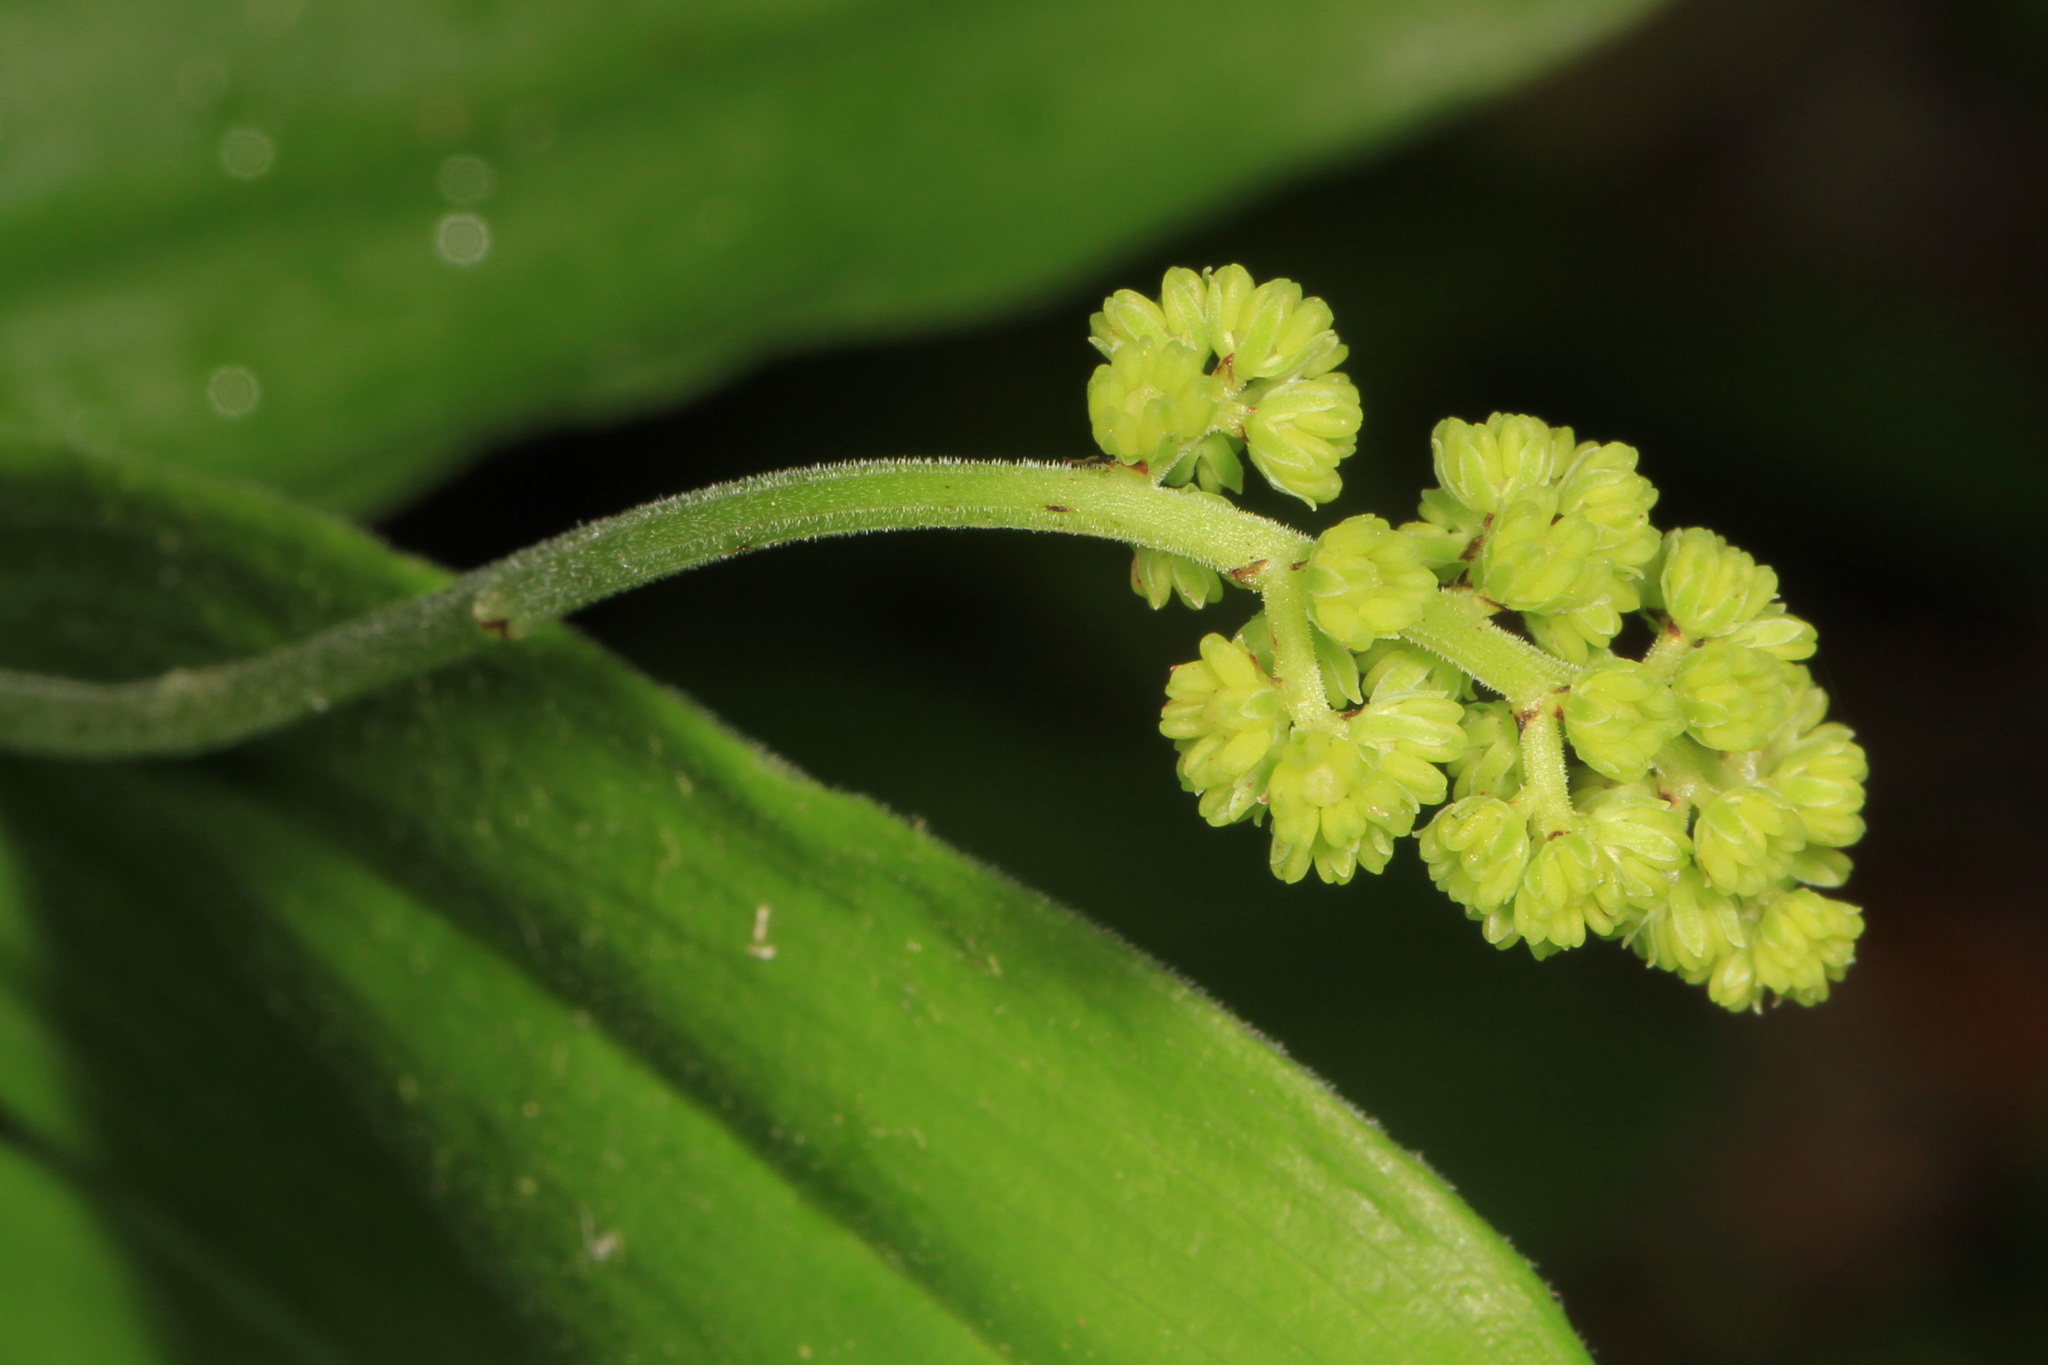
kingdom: Plantae
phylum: Tracheophyta
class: Liliopsida
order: Asparagales
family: Asparagaceae
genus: Maianthemum
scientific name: Maianthemum racemosum
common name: False spikenard
